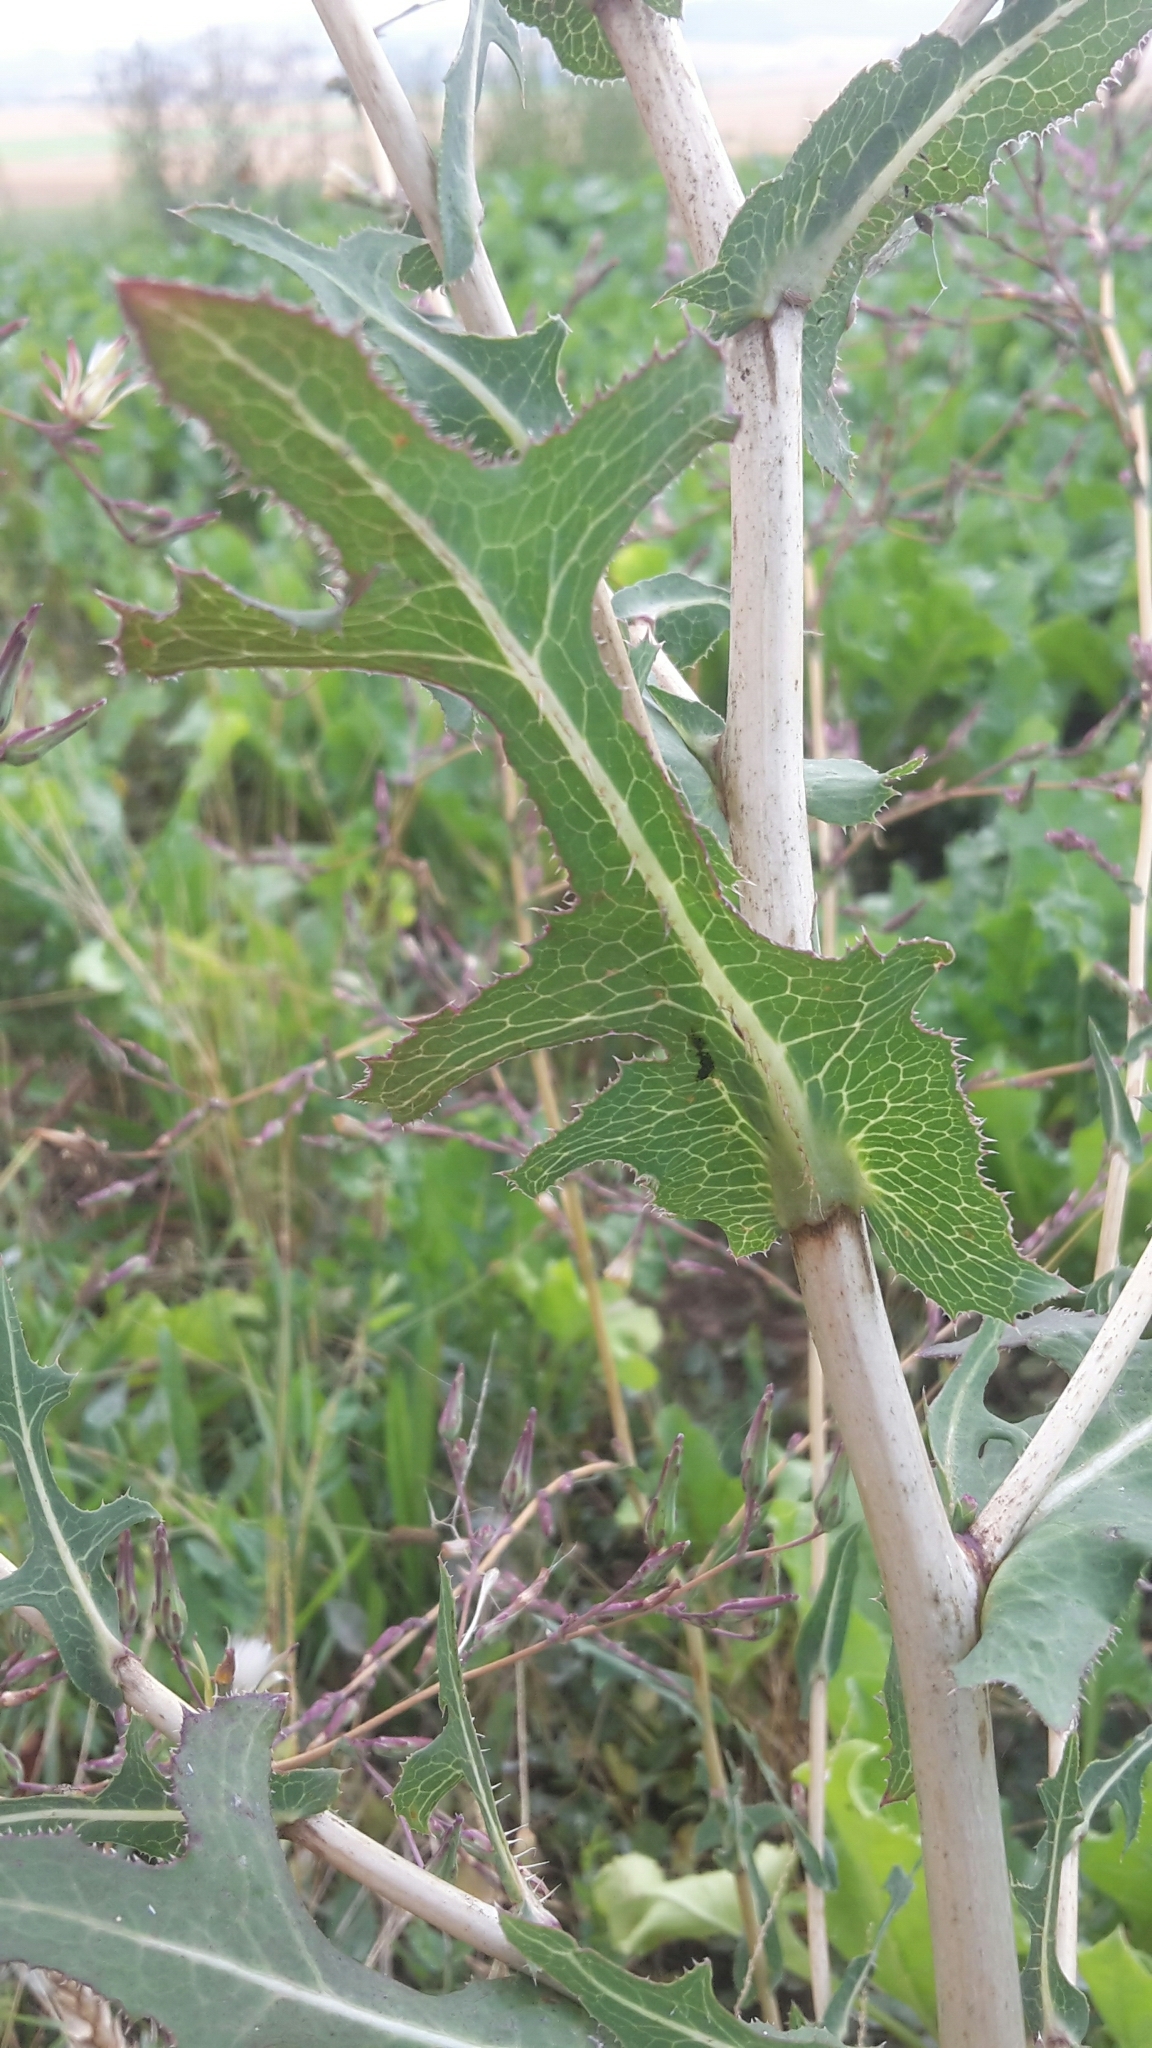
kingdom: Plantae
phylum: Tracheophyta
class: Magnoliopsida
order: Asterales
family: Asteraceae
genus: Lactuca
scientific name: Lactuca serriola
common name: Prickly lettuce
